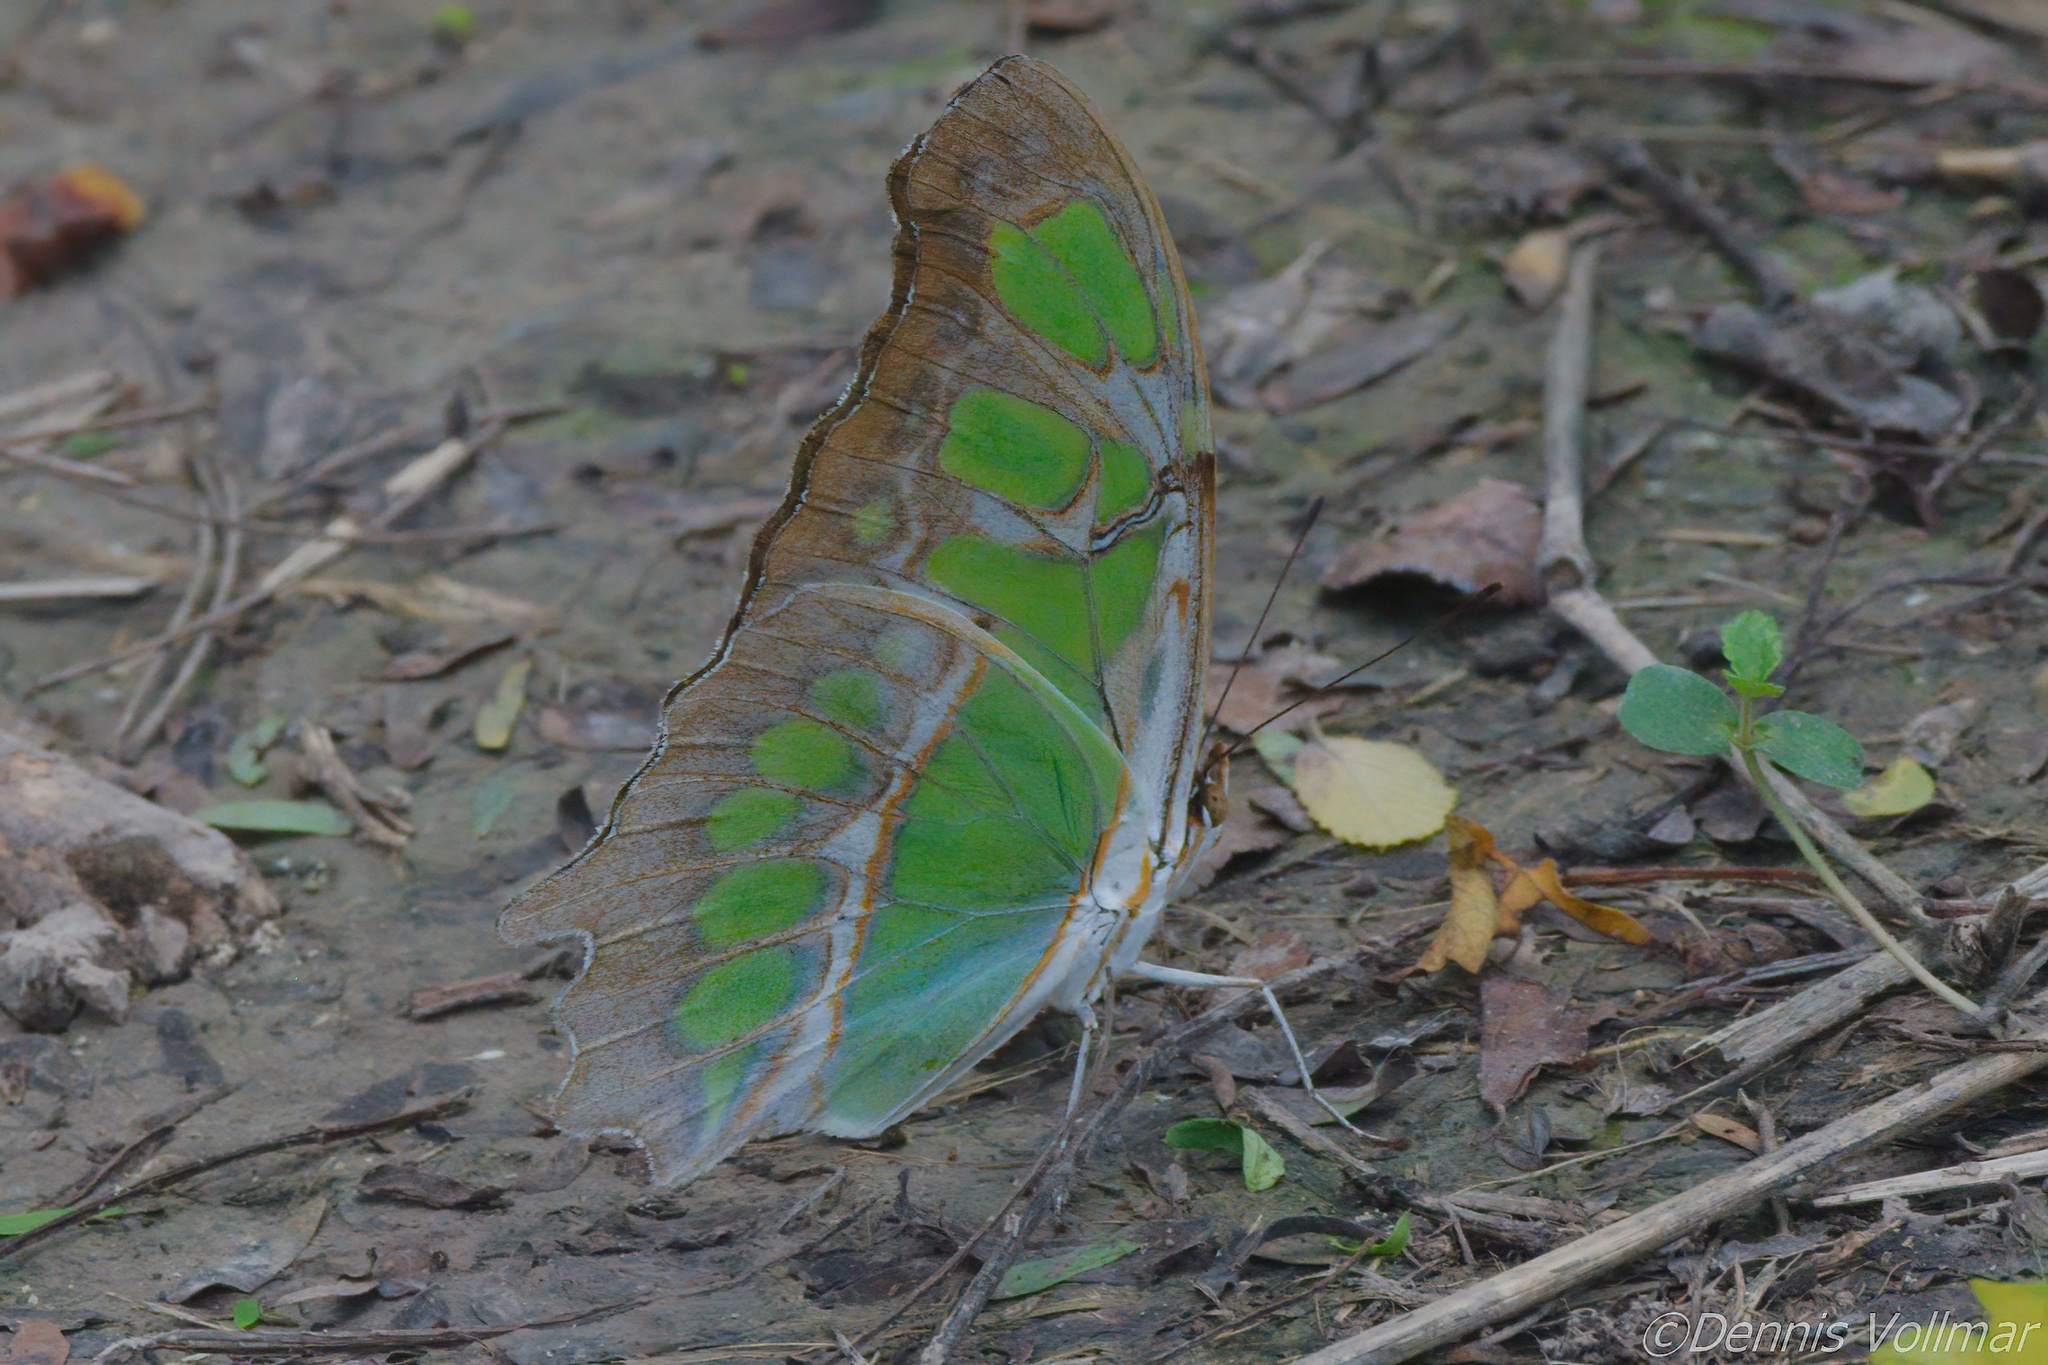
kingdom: Animalia
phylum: Arthropoda
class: Insecta
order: Lepidoptera
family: Nymphalidae
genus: Siproeta
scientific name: Siproeta stelenes
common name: Malachite
